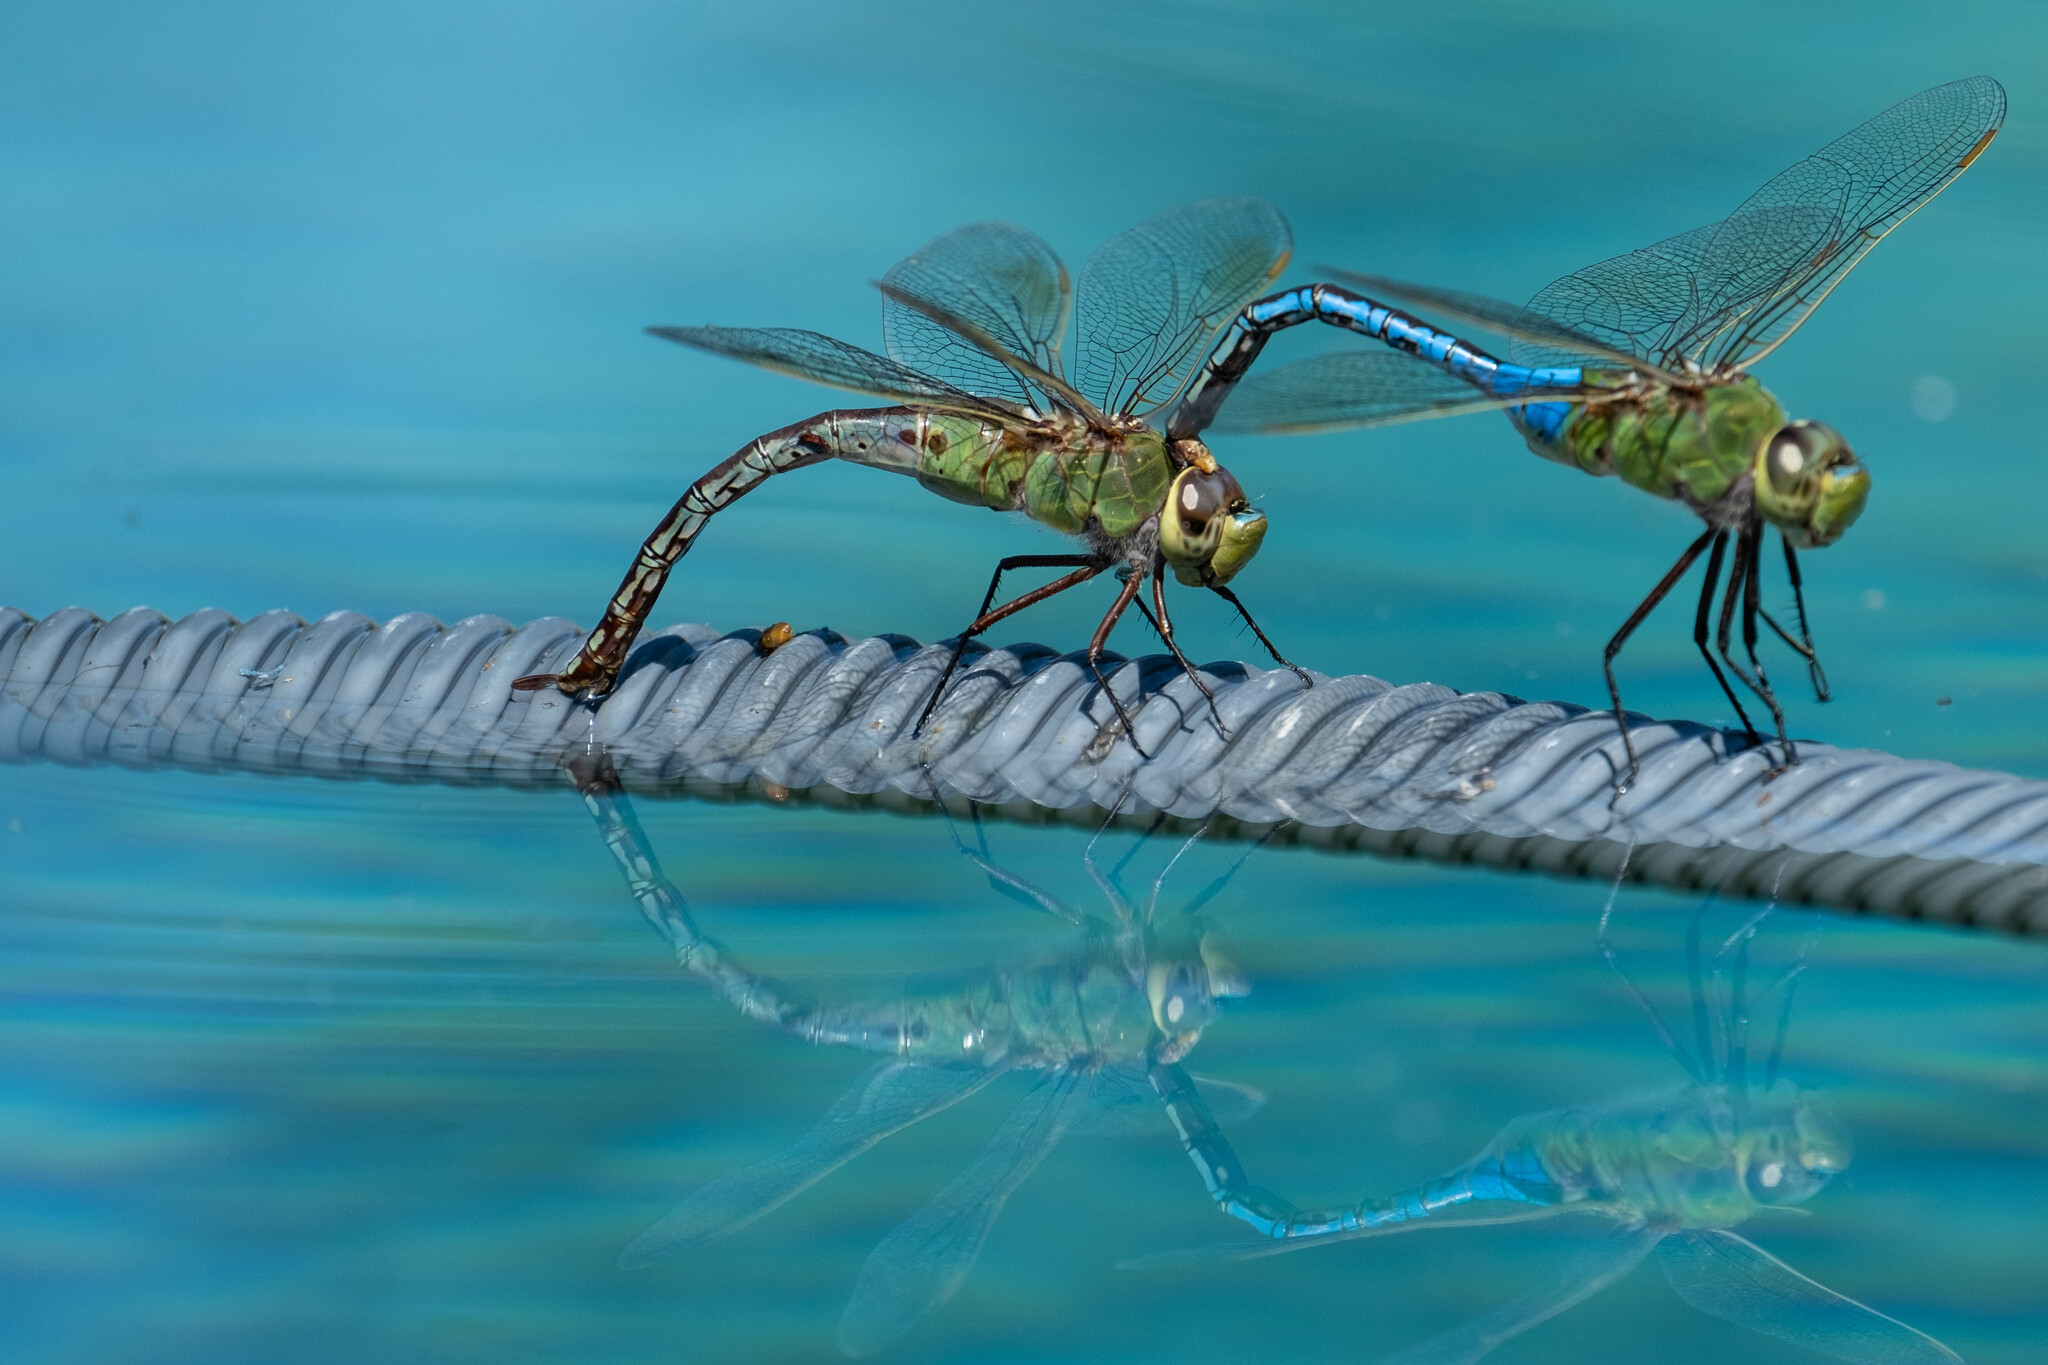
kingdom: Animalia
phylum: Arthropoda
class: Insecta
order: Odonata
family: Aeshnidae
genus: Anax
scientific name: Anax junius
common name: Common green darner
